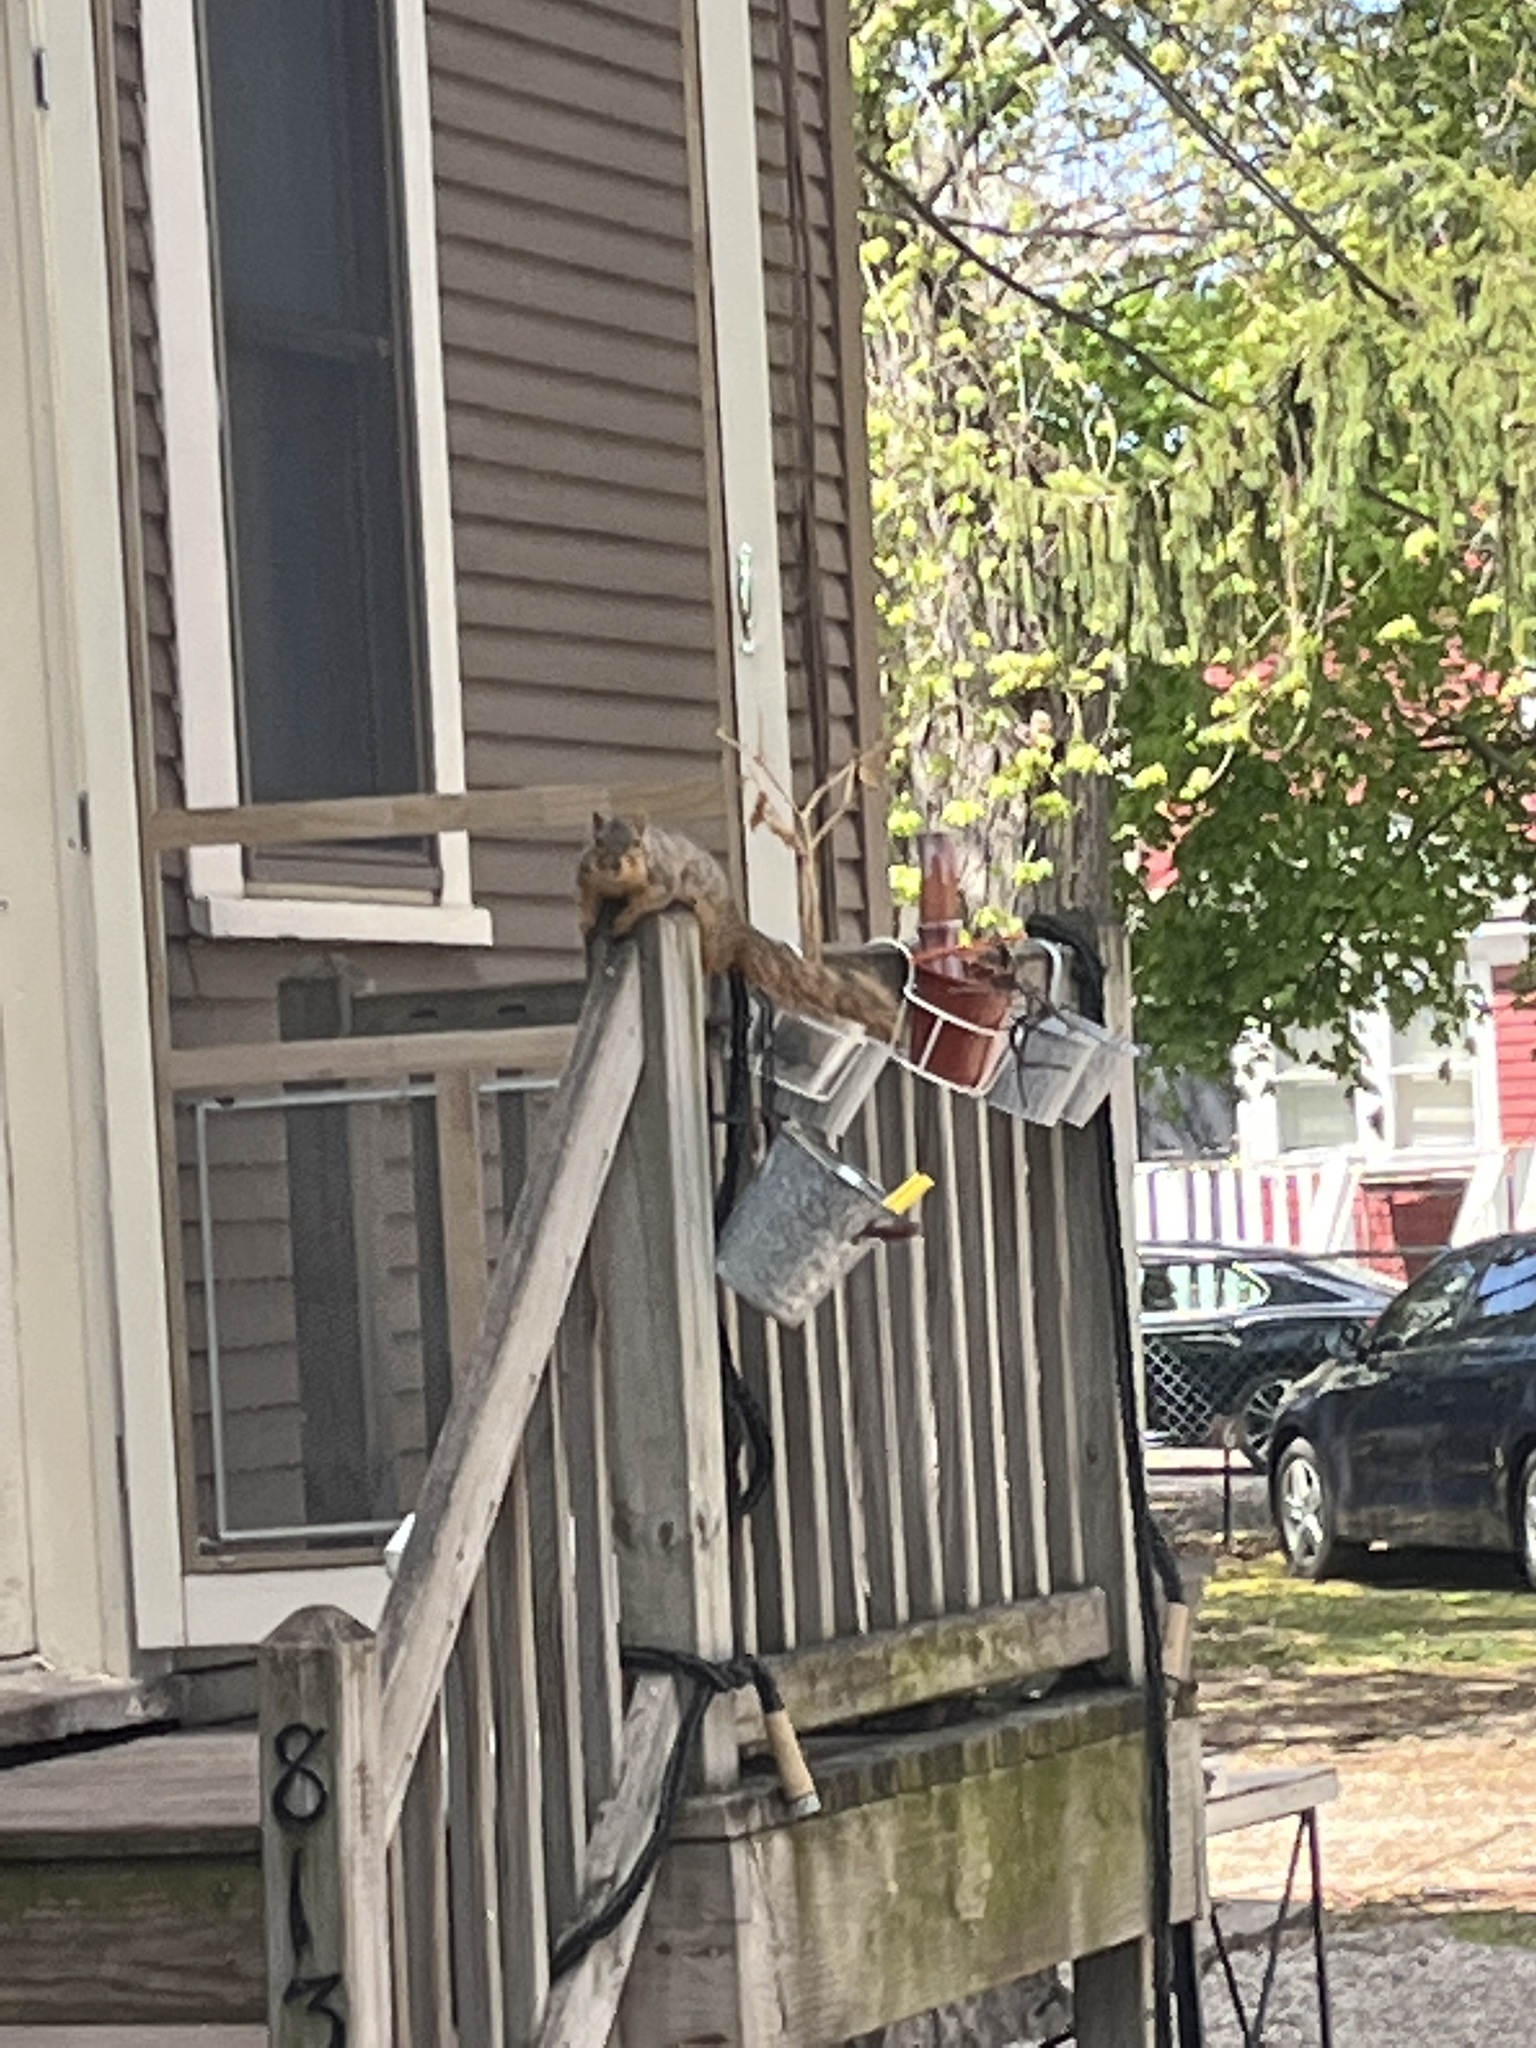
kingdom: Animalia
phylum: Chordata
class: Mammalia
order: Rodentia
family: Sciuridae
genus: Sciurus
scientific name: Sciurus niger
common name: Fox squirrel
